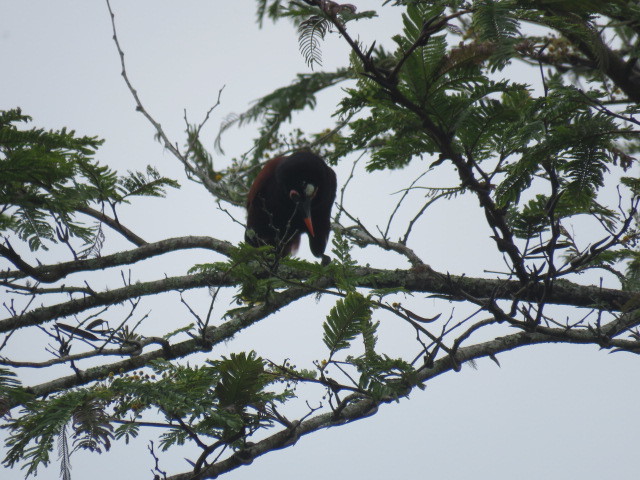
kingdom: Animalia
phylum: Chordata
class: Aves
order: Passeriformes
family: Icteridae
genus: Psarocolius
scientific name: Psarocolius montezuma
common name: Montezuma oropendola
